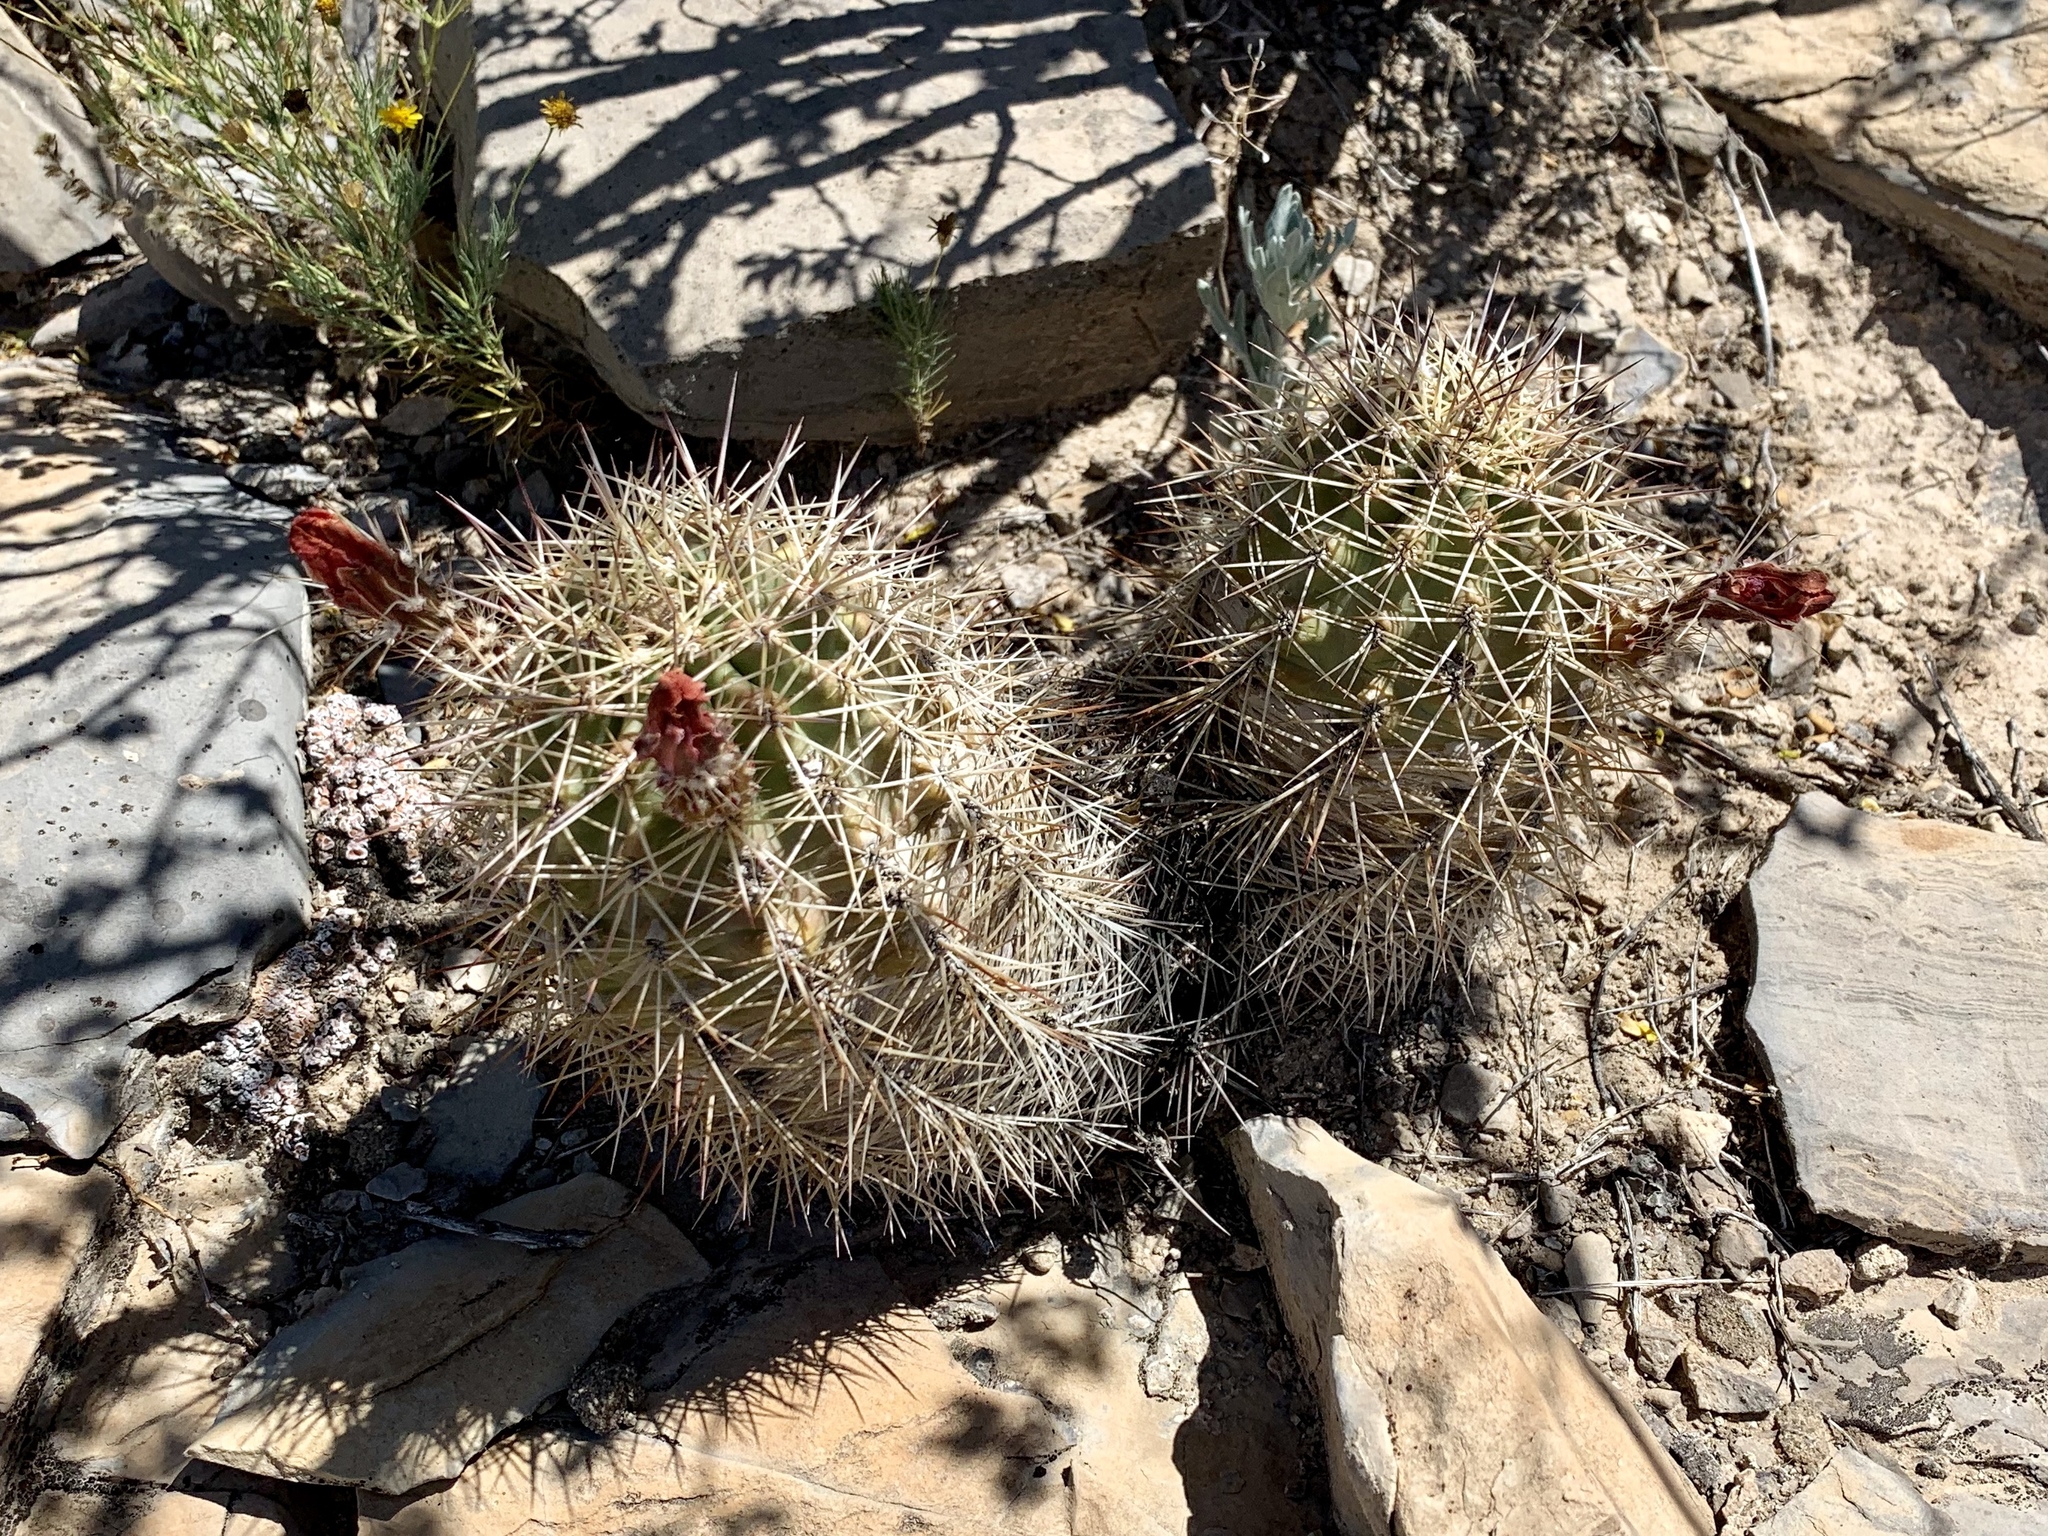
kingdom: Plantae
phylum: Tracheophyta
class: Magnoliopsida
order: Caryophyllales
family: Cactaceae
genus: Echinocereus
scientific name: Echinocereus coccineus
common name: Scarlet hedgehog cactus
